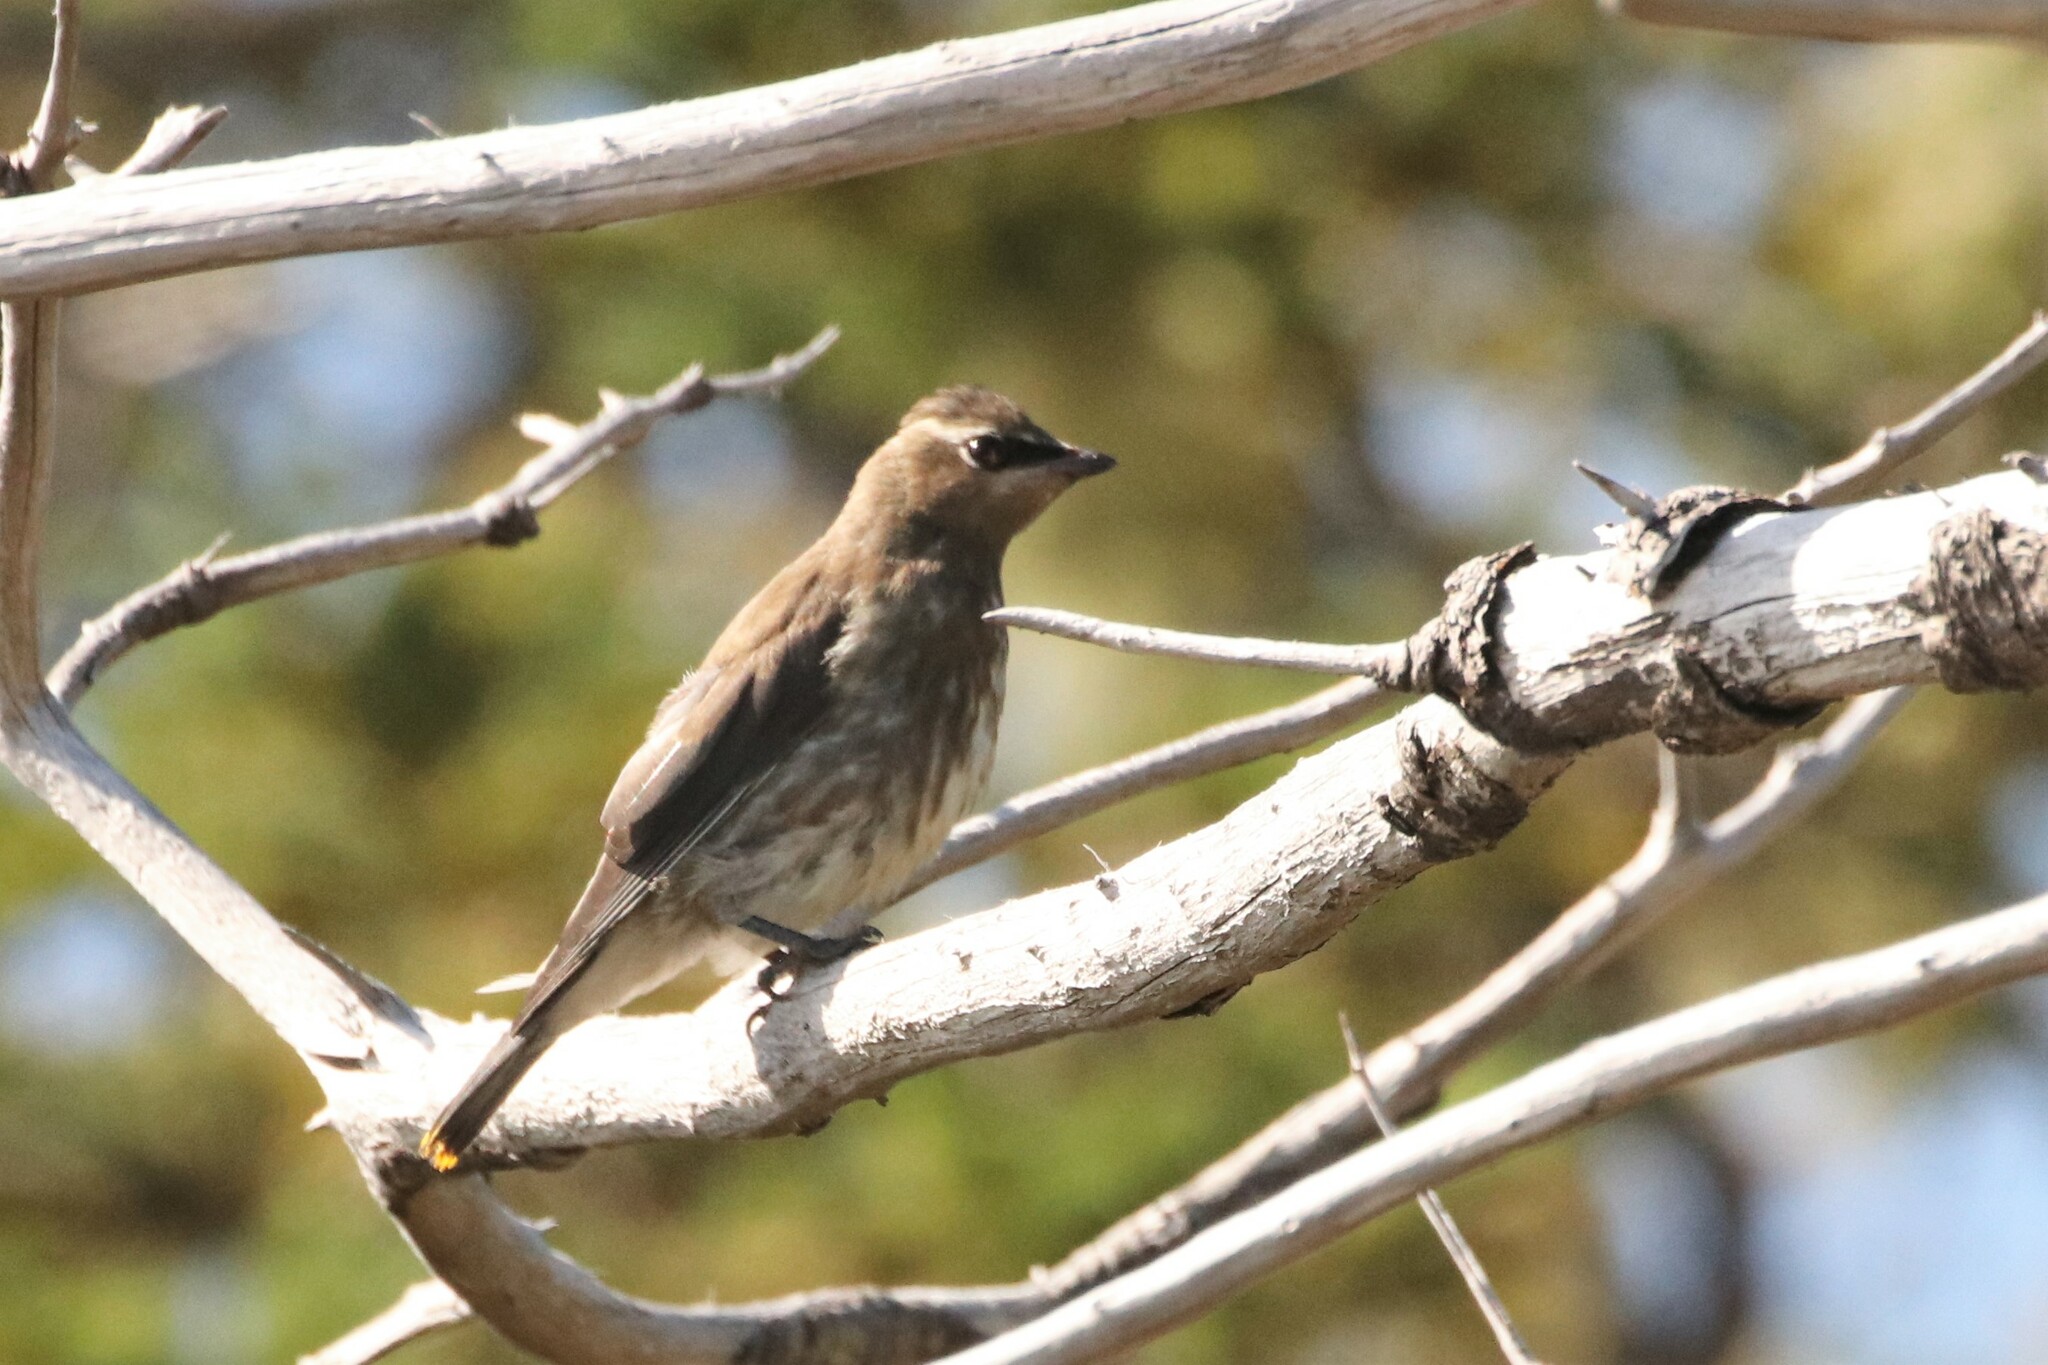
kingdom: Animalia
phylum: Chordata
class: Aves
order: Passeriformes
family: Bombycillidae
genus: Bombycilla
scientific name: Bombycilla cedrorum
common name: Cedar waxwing
